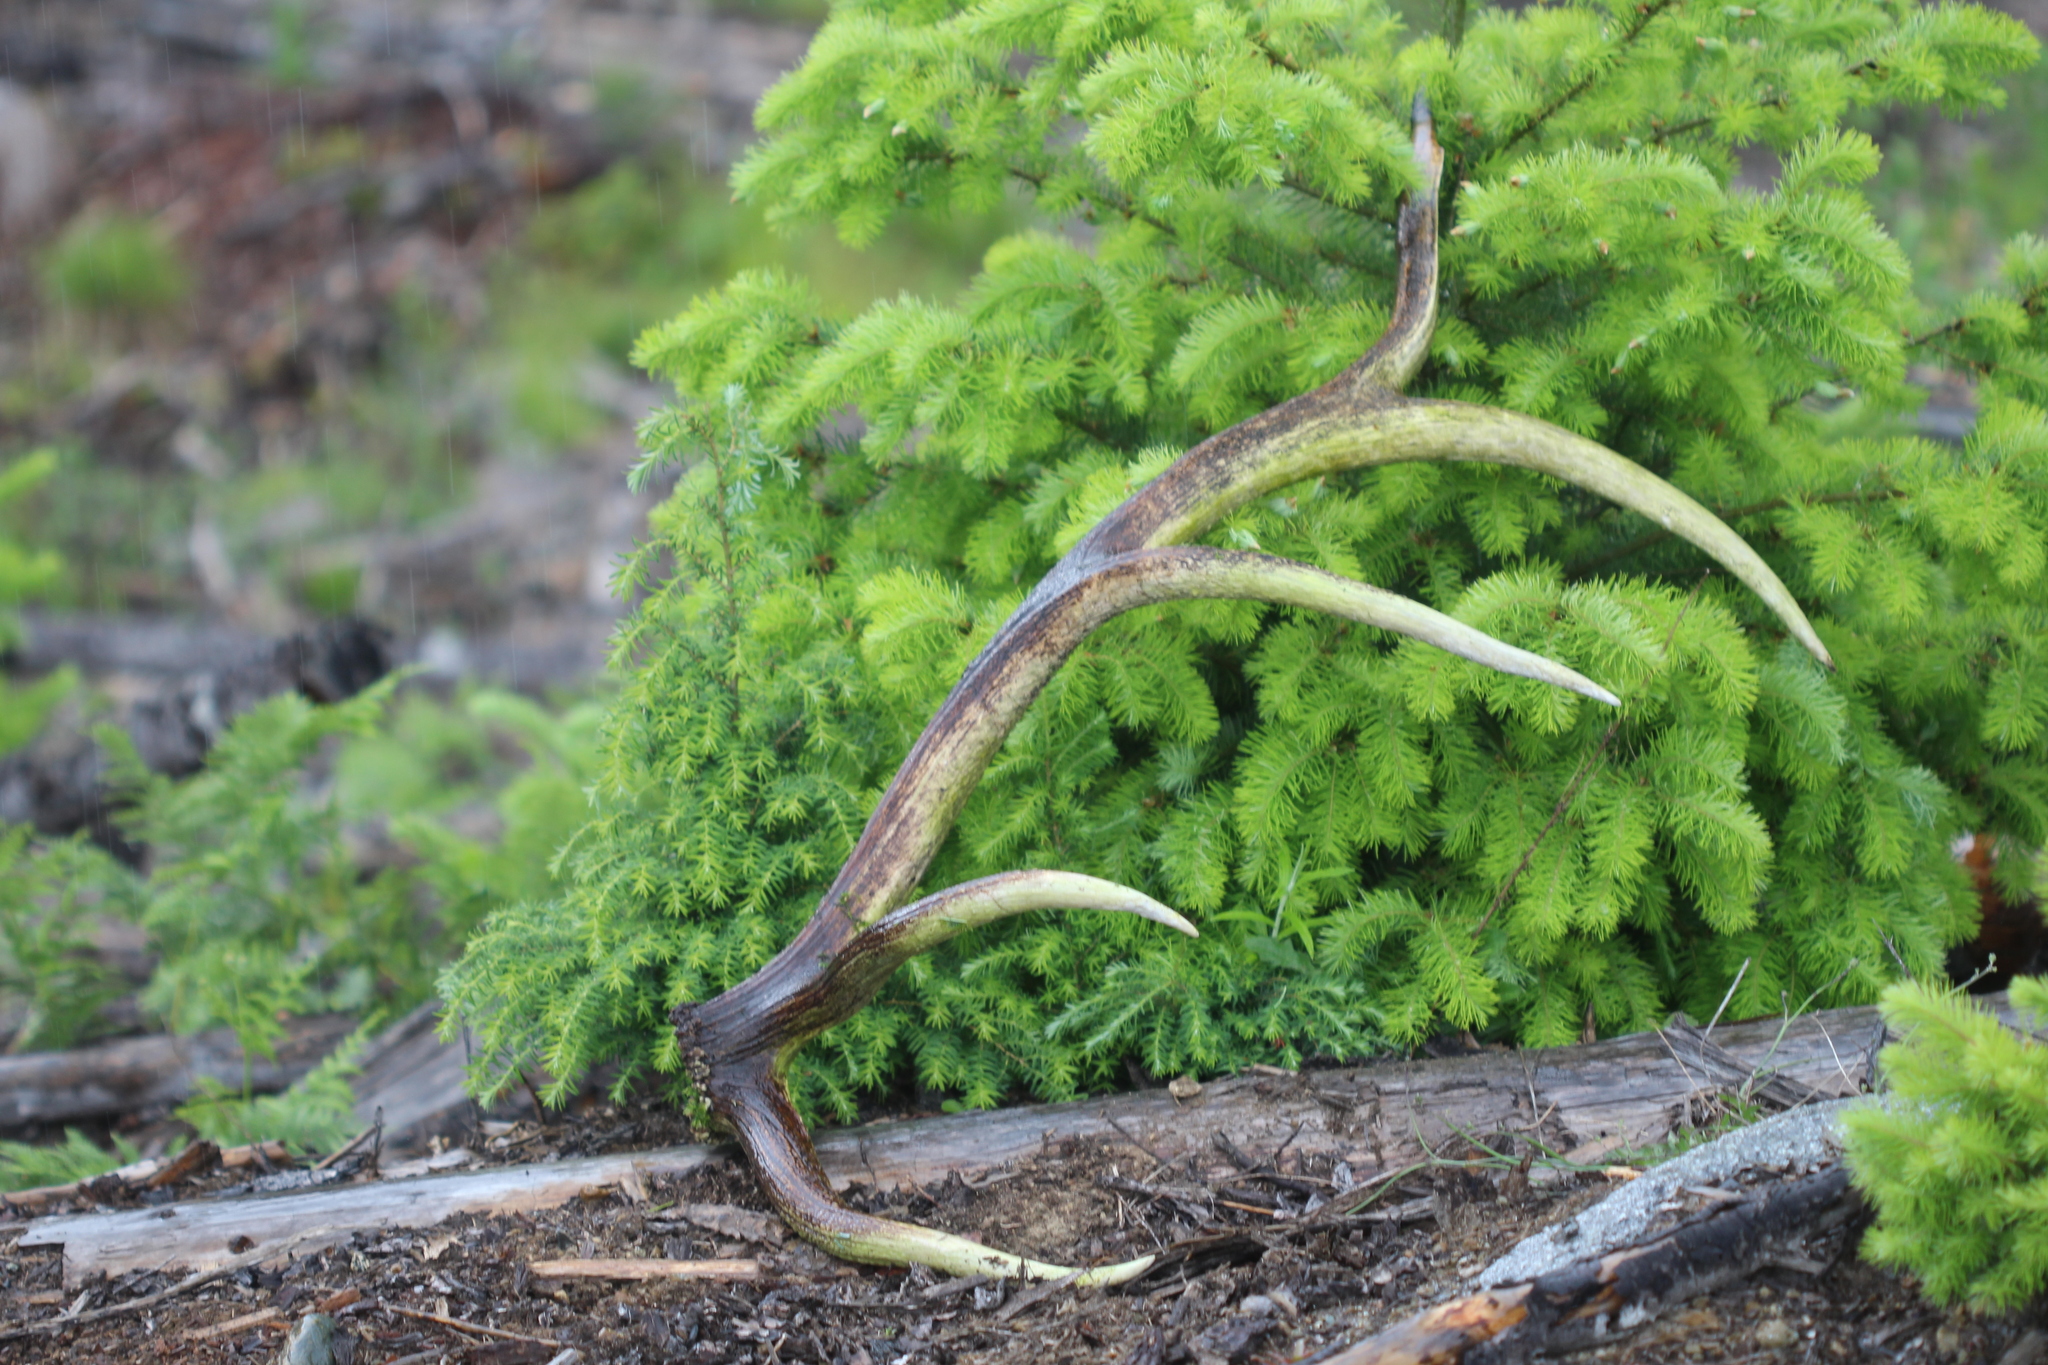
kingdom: Animalia
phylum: Chordata
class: Mammalia
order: Artiodactyla
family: Cervidae
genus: Cervus
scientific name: Cervus elaphus
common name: Red deer
